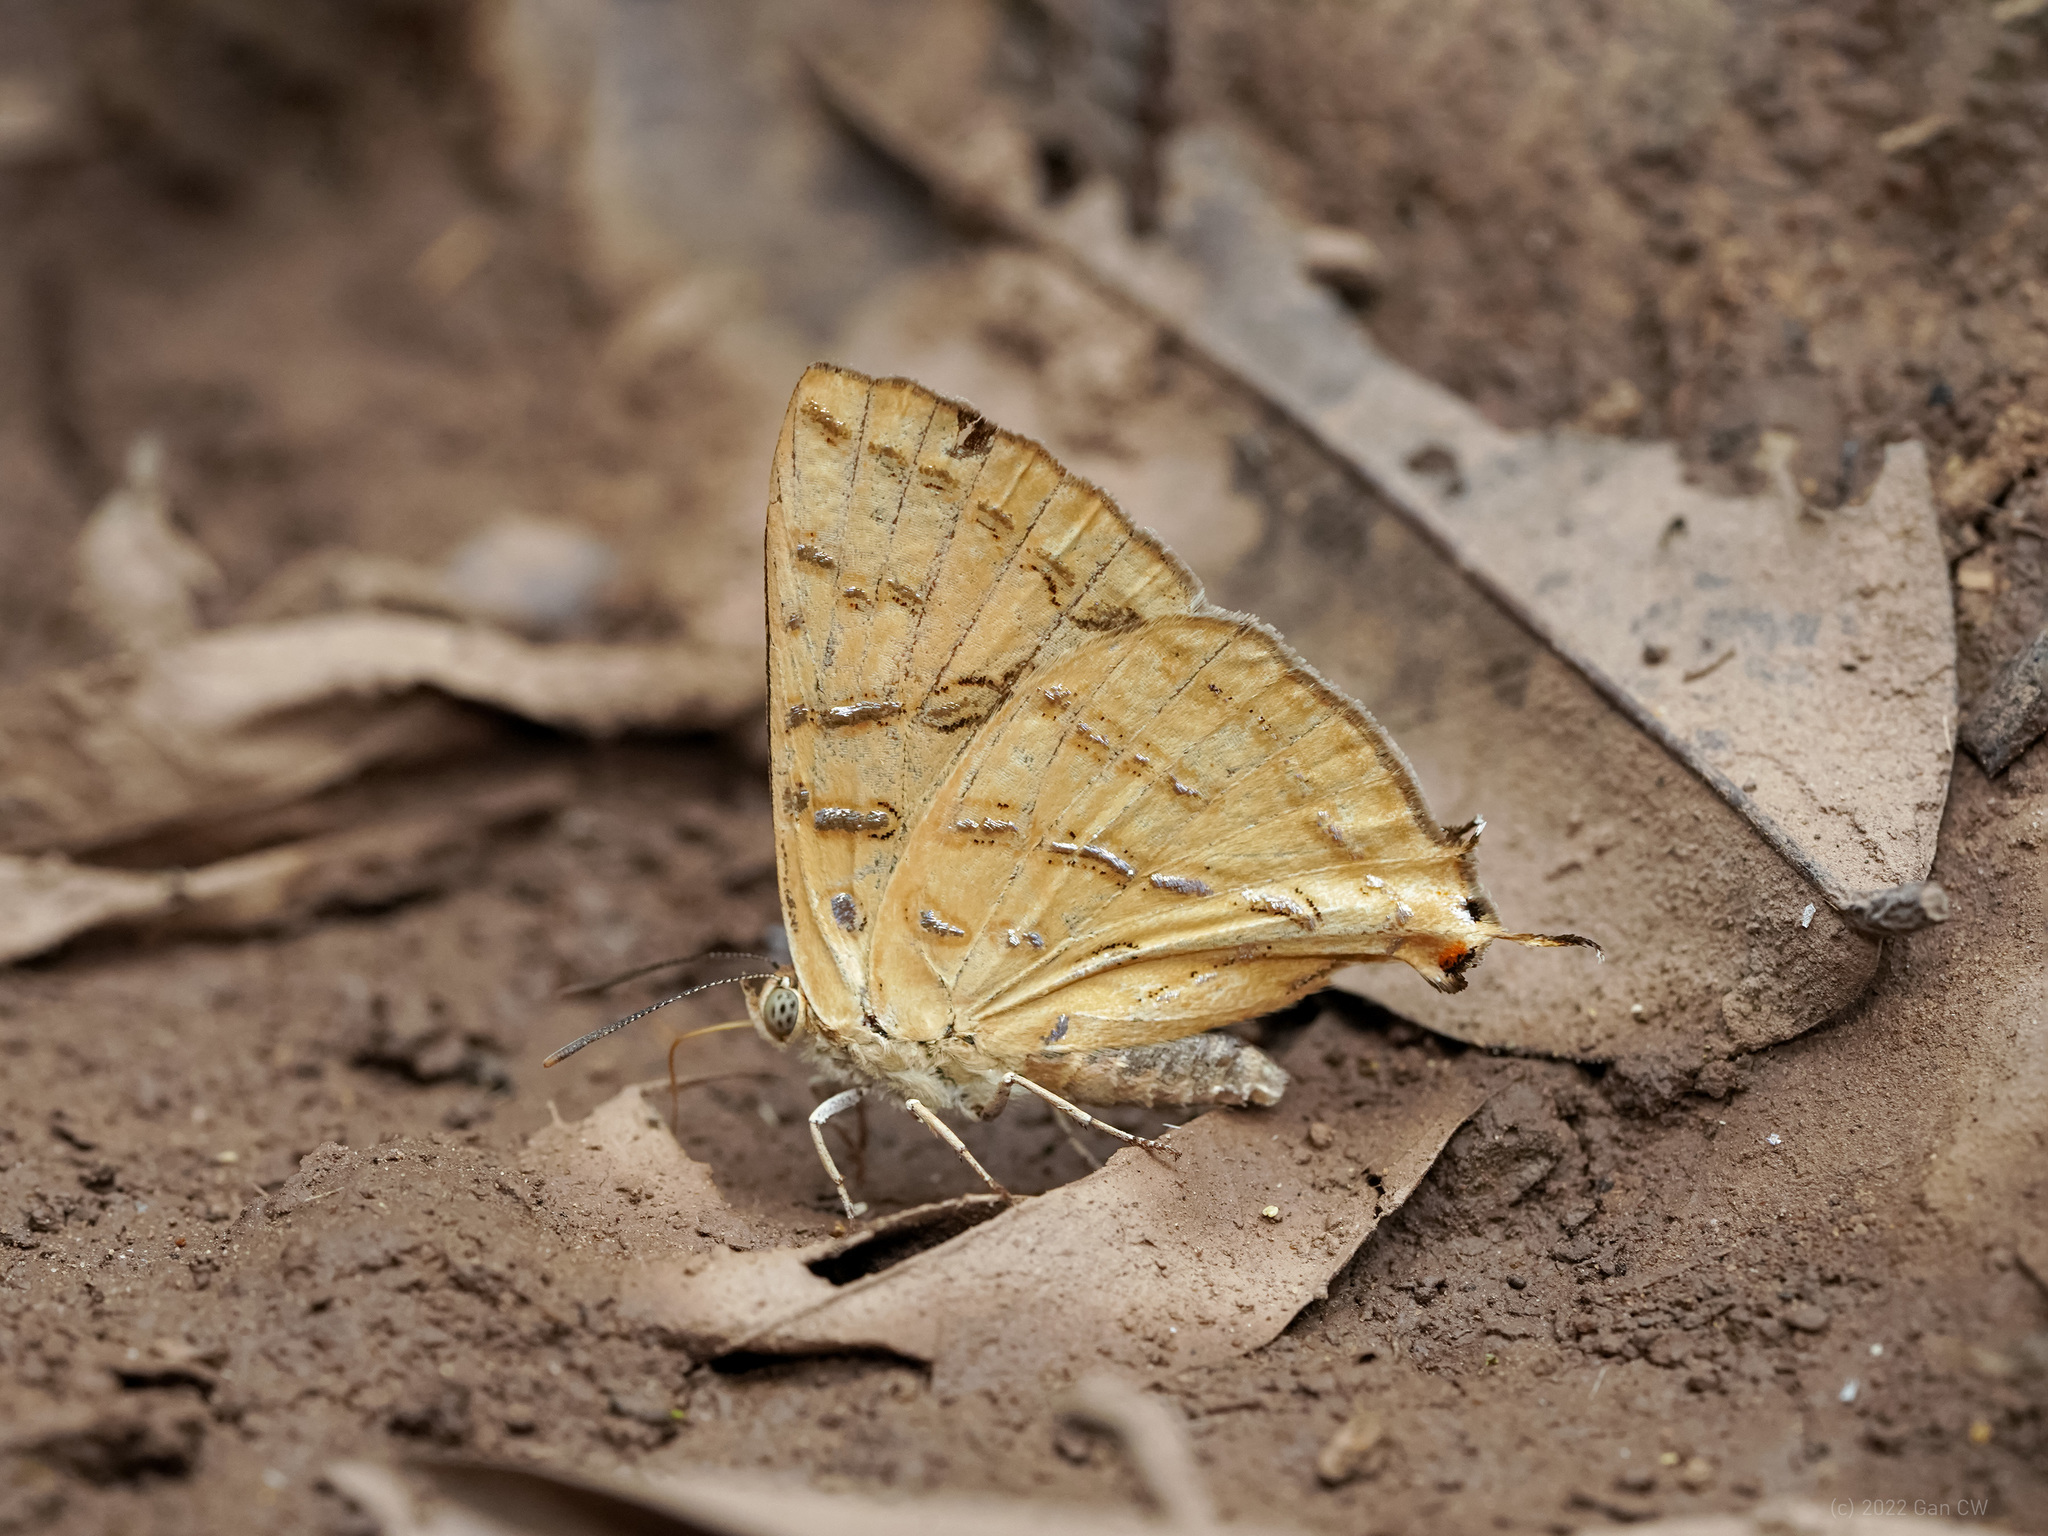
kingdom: Animalia
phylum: Arthropoda
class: Insecta
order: Lepidoptera
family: Lycaenidae
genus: Cigaritis
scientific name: Cigaritis maxima
